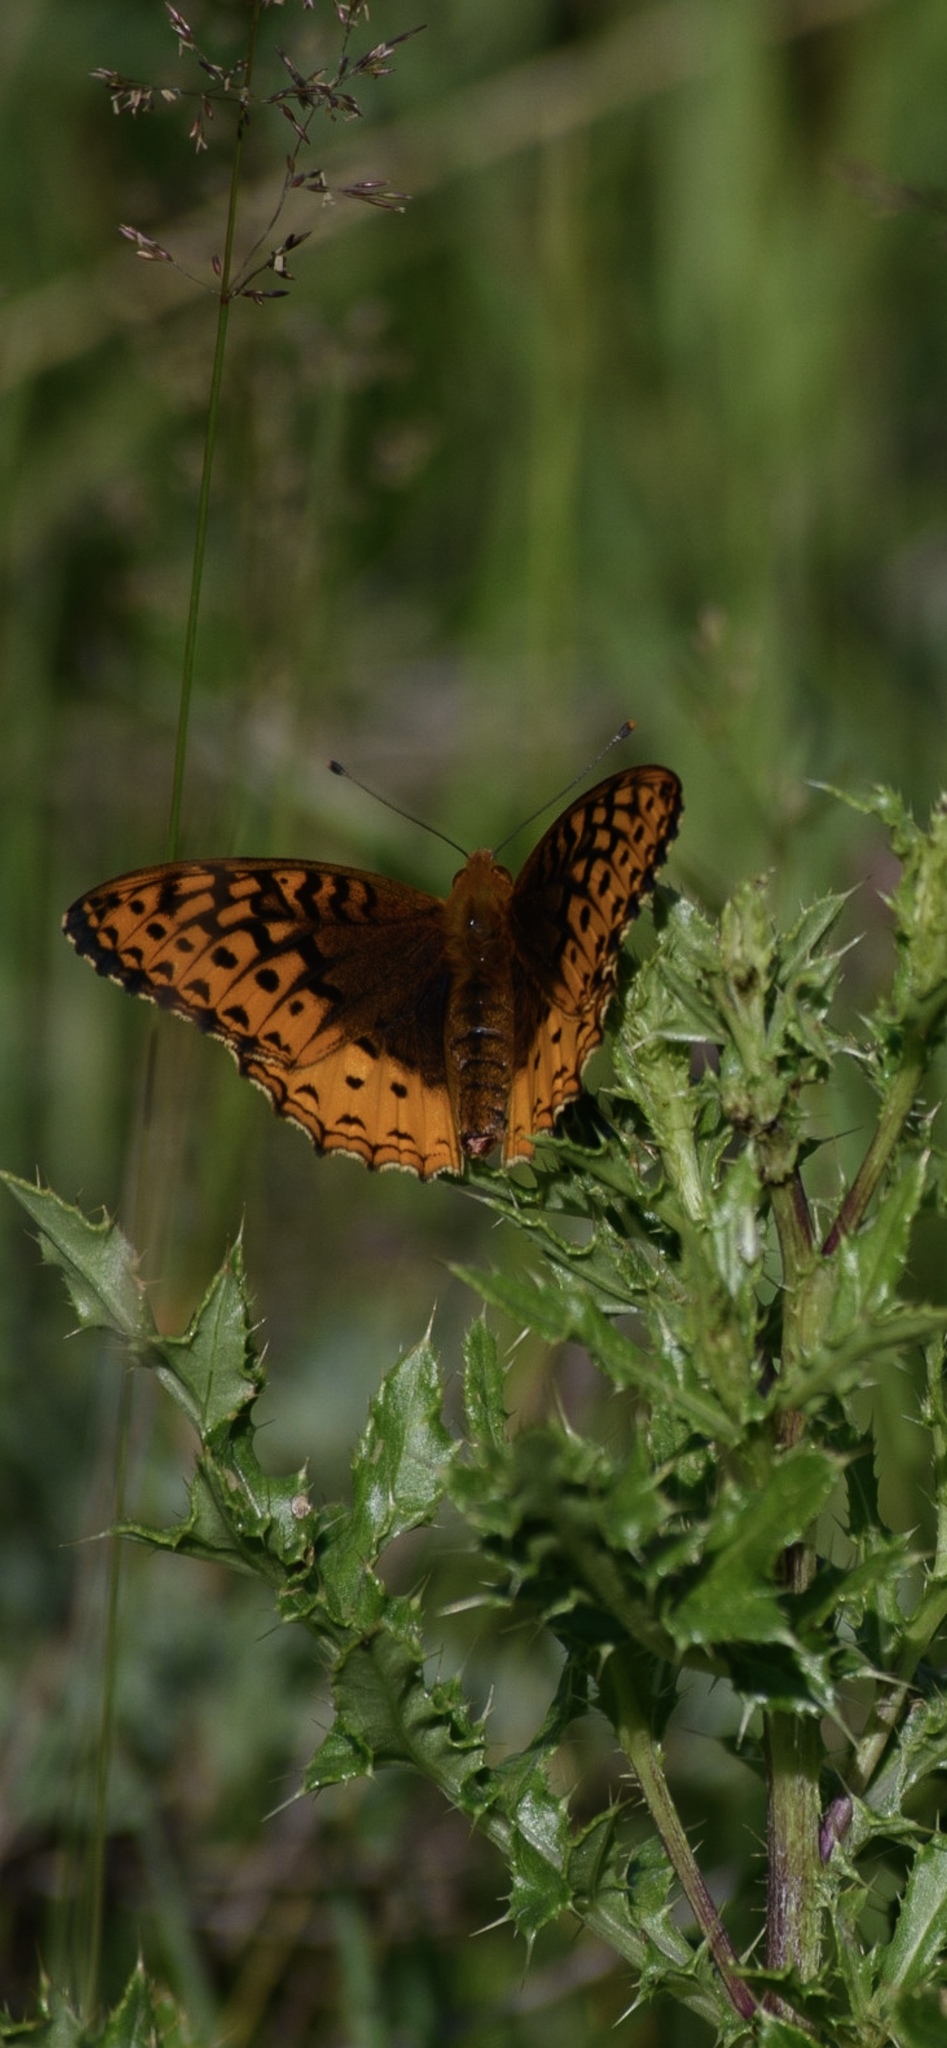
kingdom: Animalia
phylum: Arthropoda
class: Insecta
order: Lepidoptera
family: Nymphalidae
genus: Speyeria
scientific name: Speyeria cybele
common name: Great spangled fritillary
